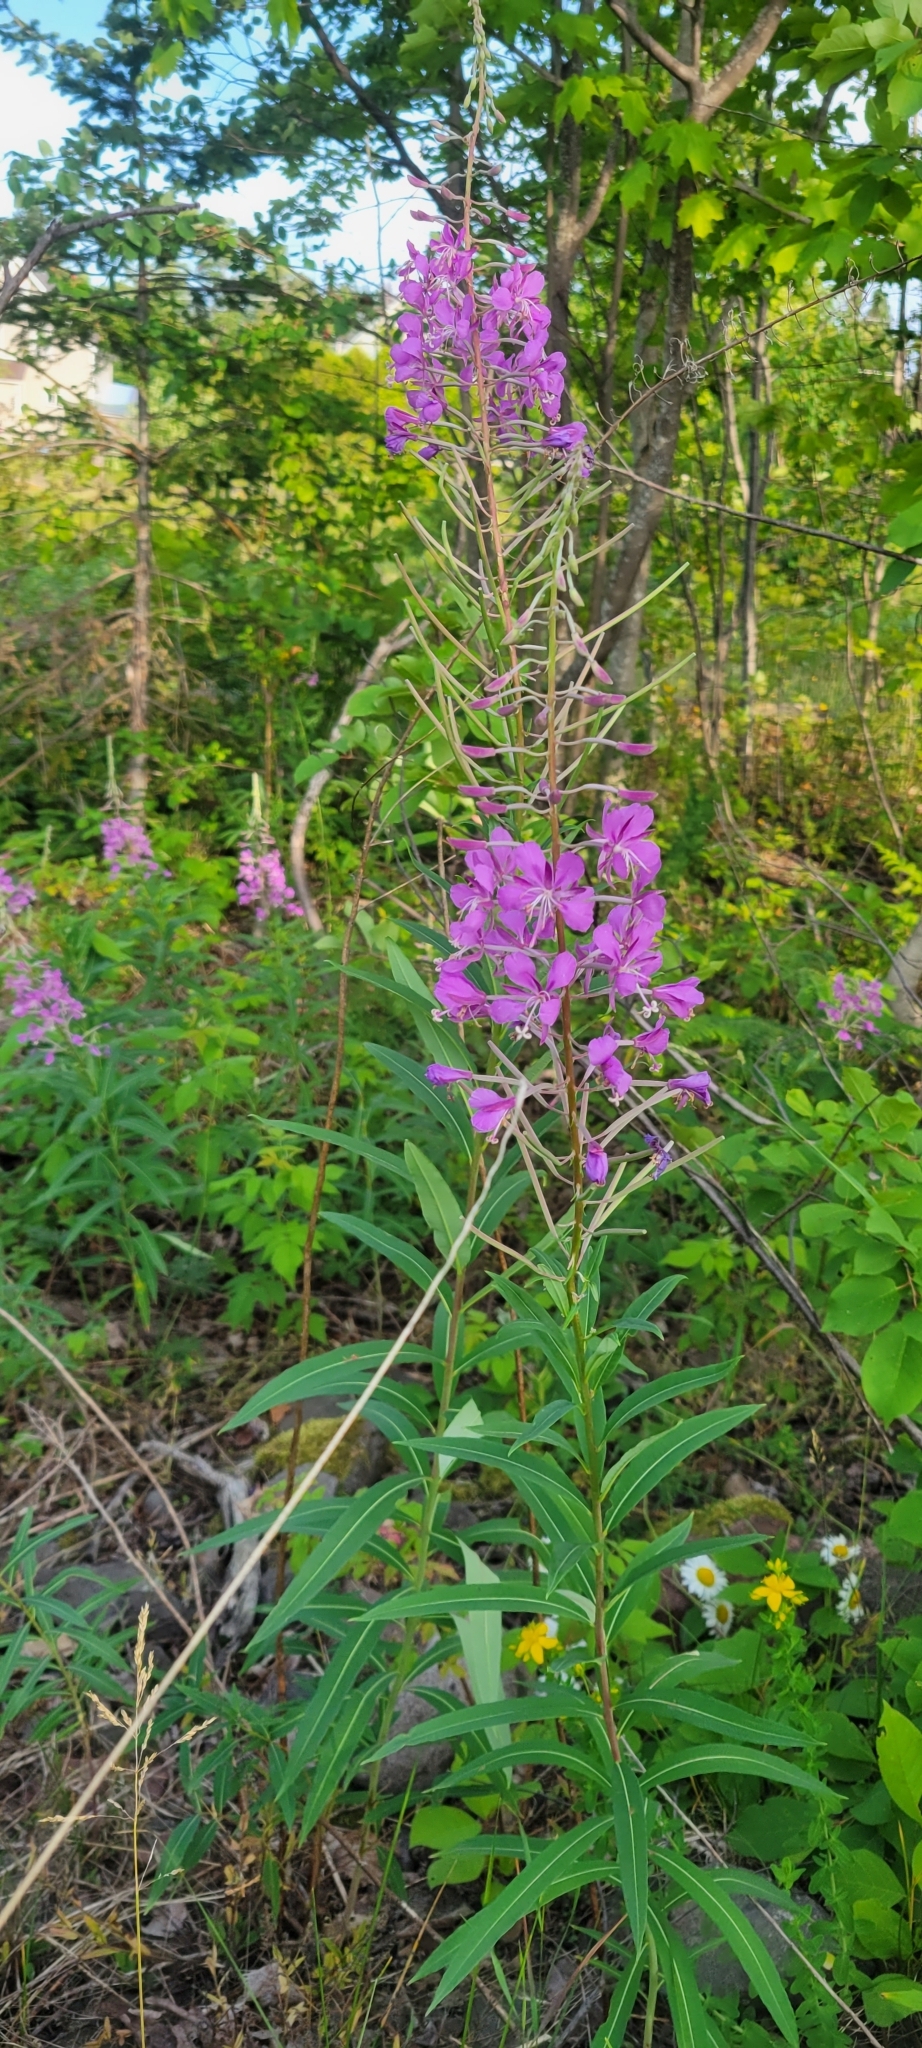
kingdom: Plantae
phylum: Tracheophyta
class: Magnoliopsida
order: Myrtales
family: Onagraceae
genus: Chamaenerion
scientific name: Chamaenerion angustifolium
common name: Fireweed
